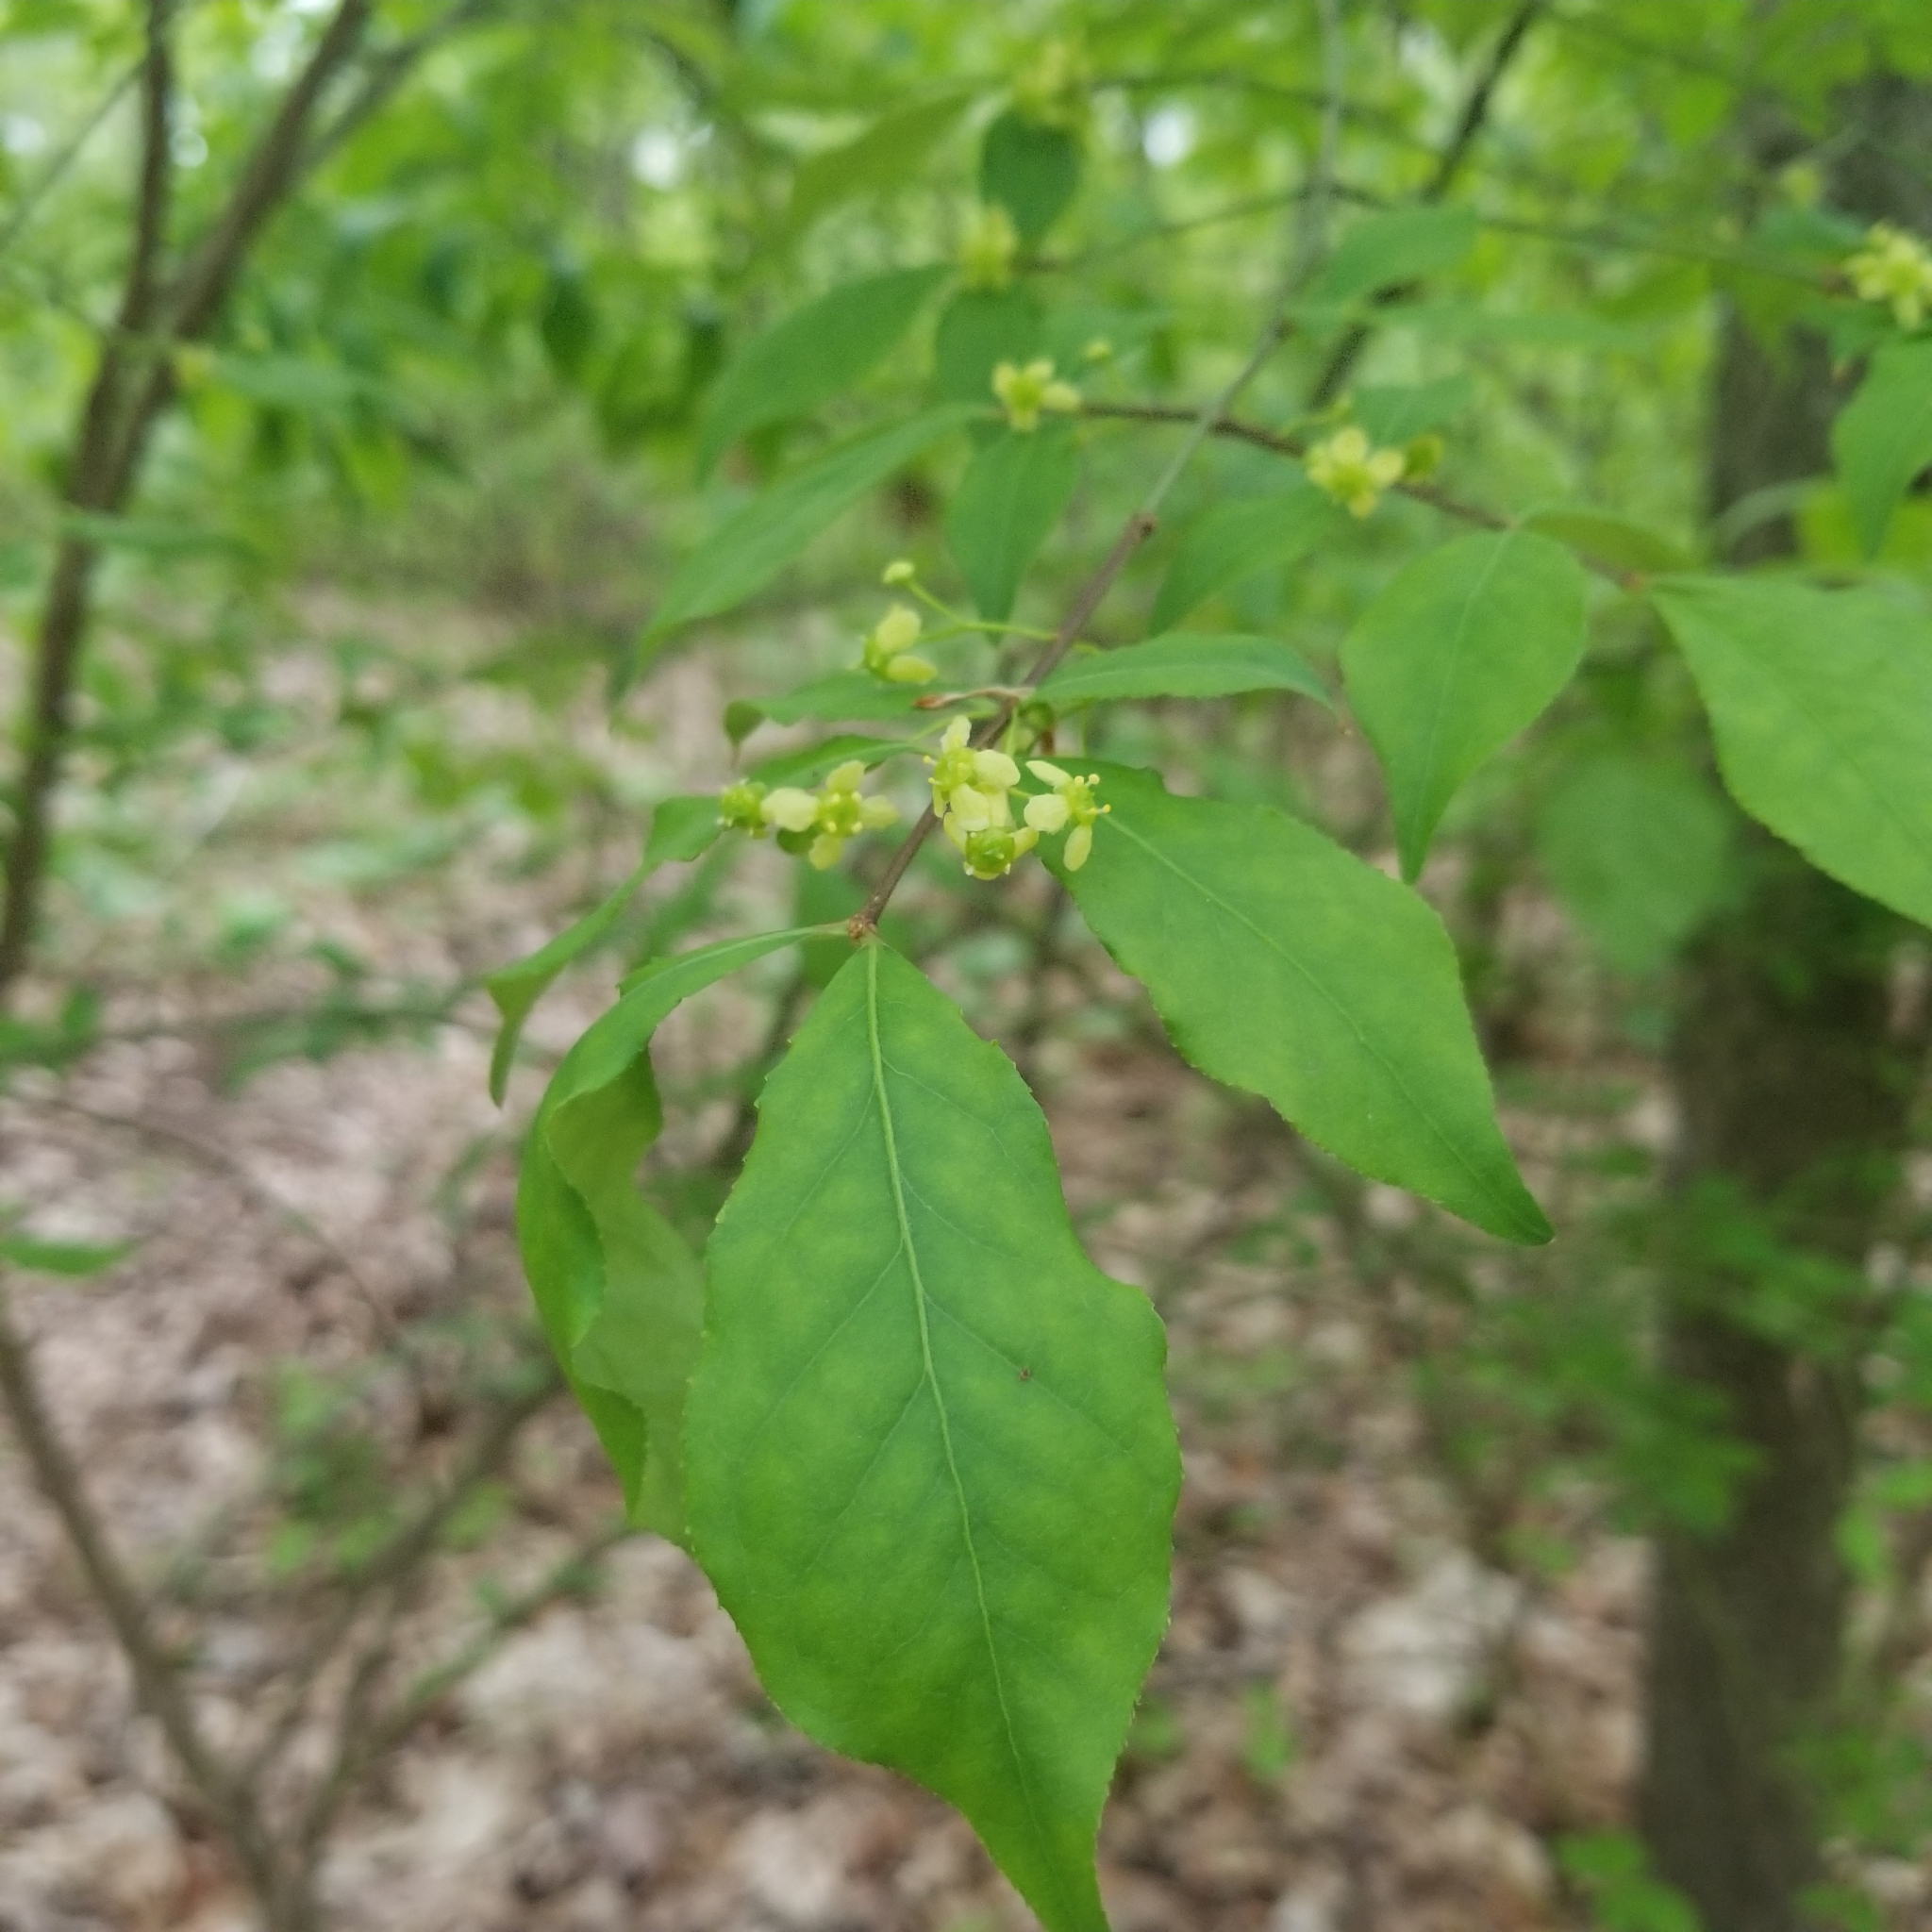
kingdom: Plantae
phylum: Tracheophyta
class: Magnoliopsida
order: Celastrales
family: Celastraceae
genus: Euonymus
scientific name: Euonymus alatus
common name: Winged euonymus
